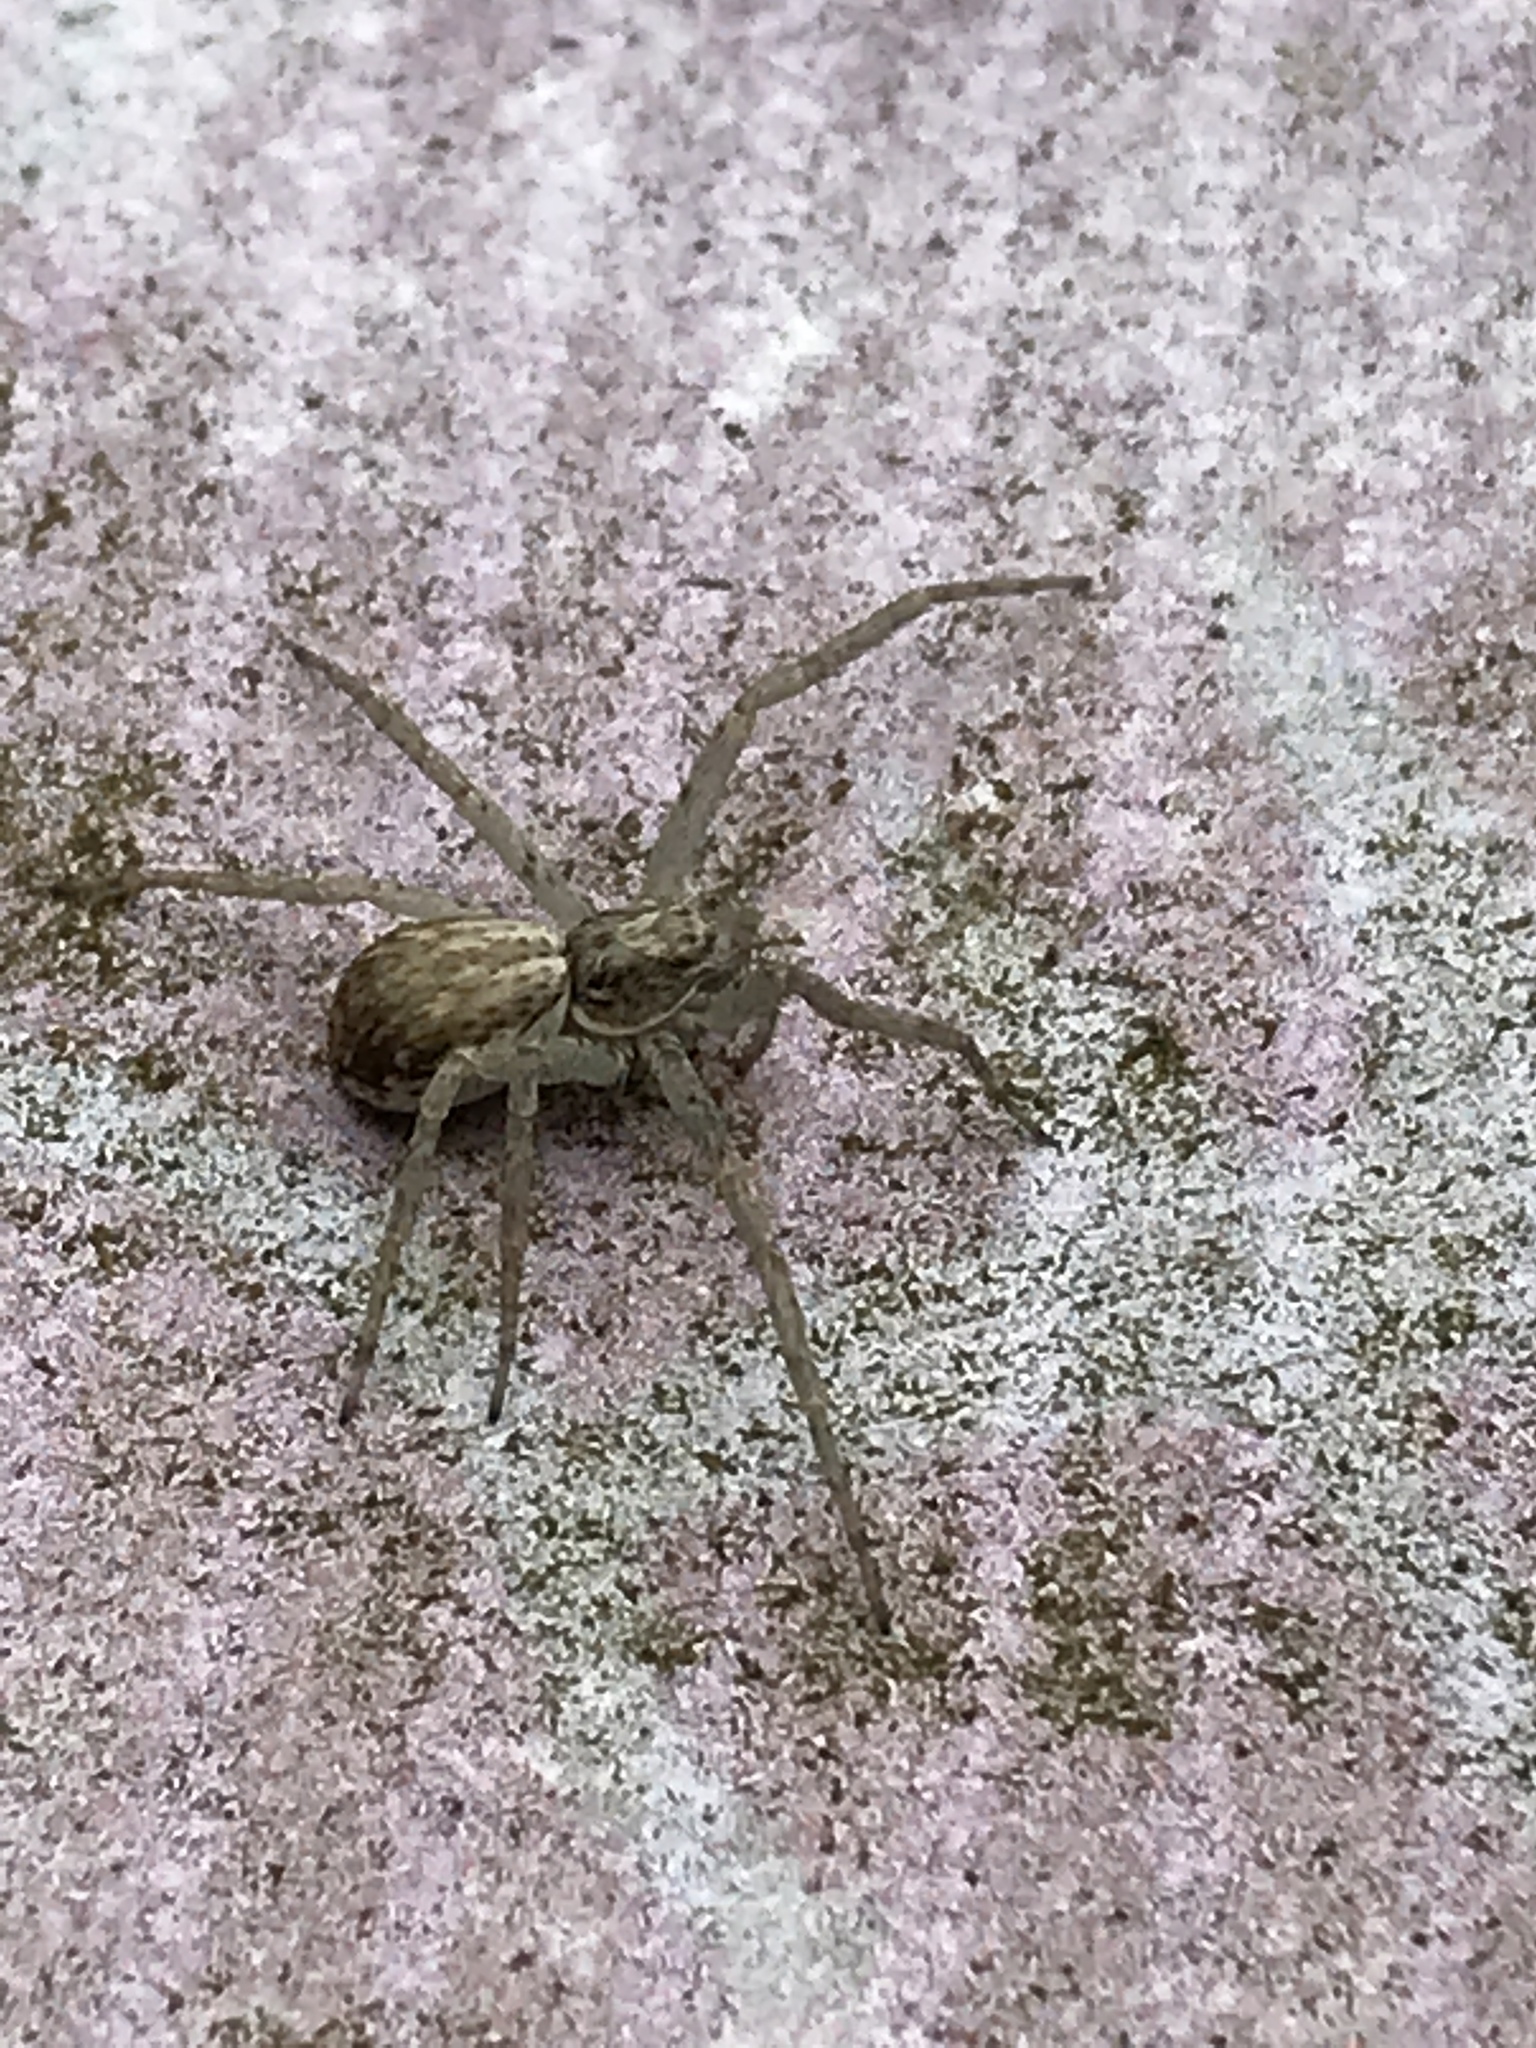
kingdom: Animalia
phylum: Arthropoda
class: Arachnida
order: Araneae
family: Philodromidae
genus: Philodromus
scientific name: Philodromus dispar
